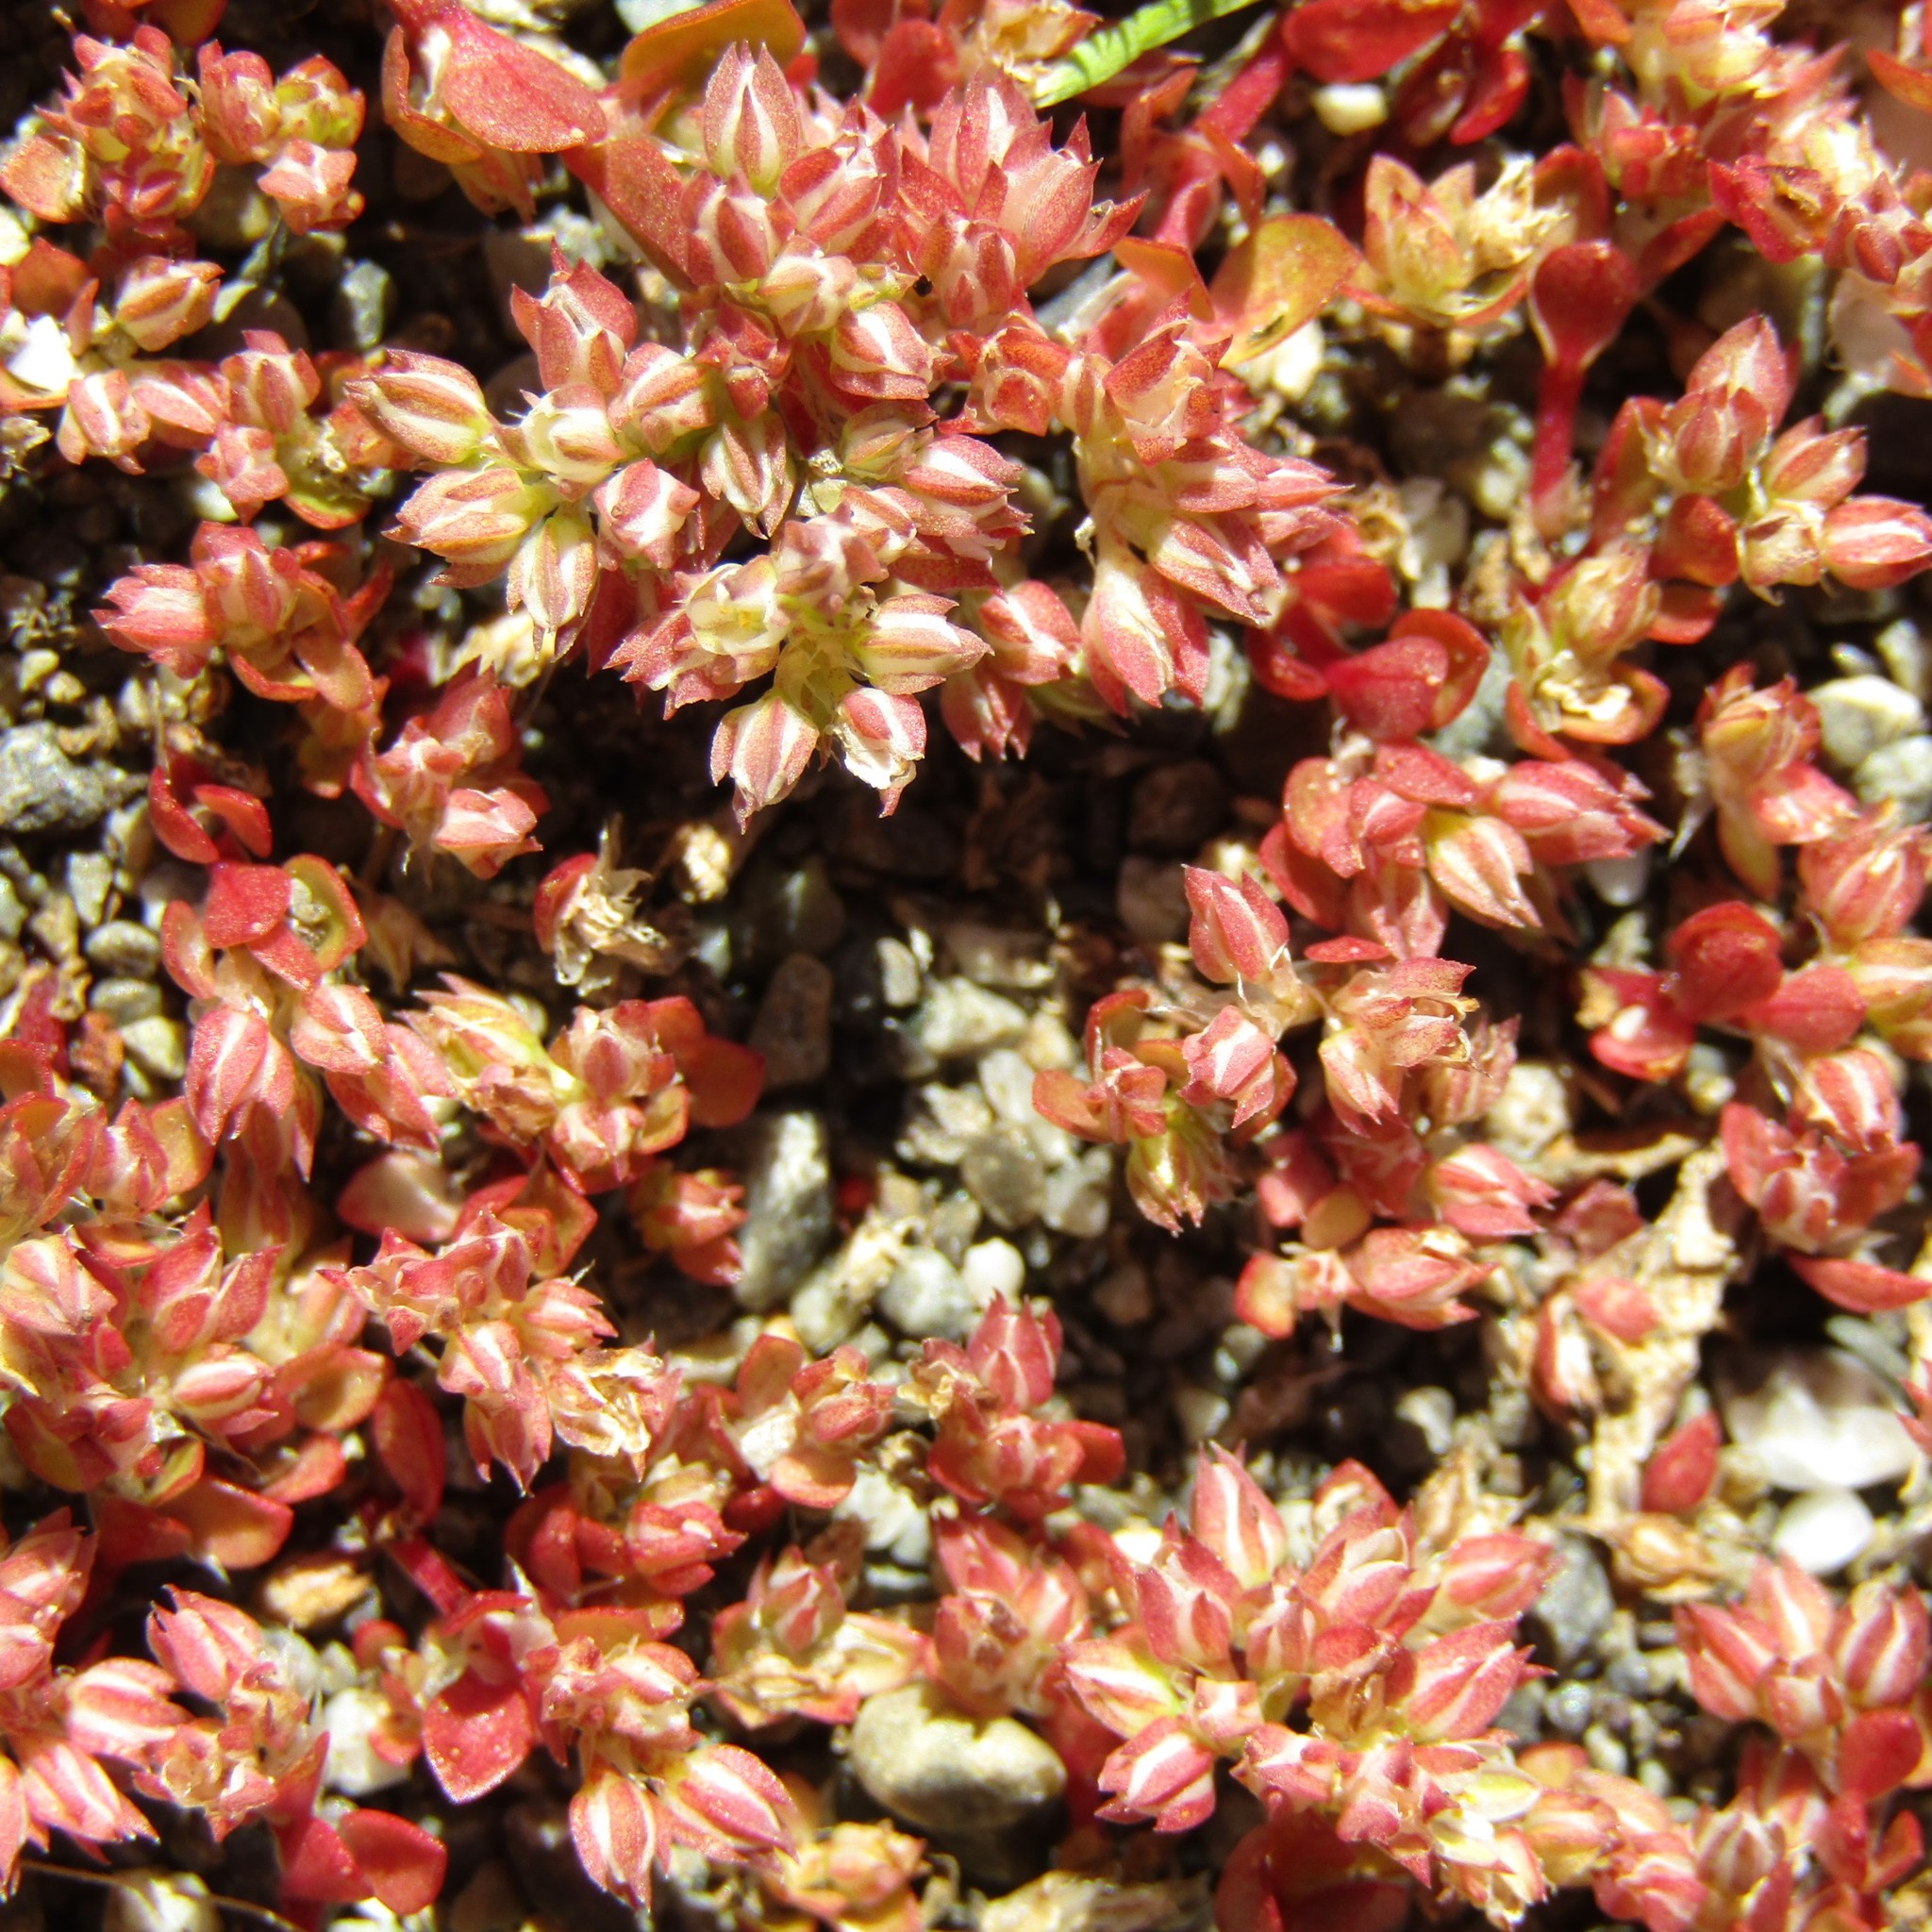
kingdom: Plantae
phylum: Tracheophyta
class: Magnoliopsida
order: Caryophyllales
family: Caryophyllaceae
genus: Polycarpon
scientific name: Polycarpon tetraphyllum
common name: Four-leaved all-seed
